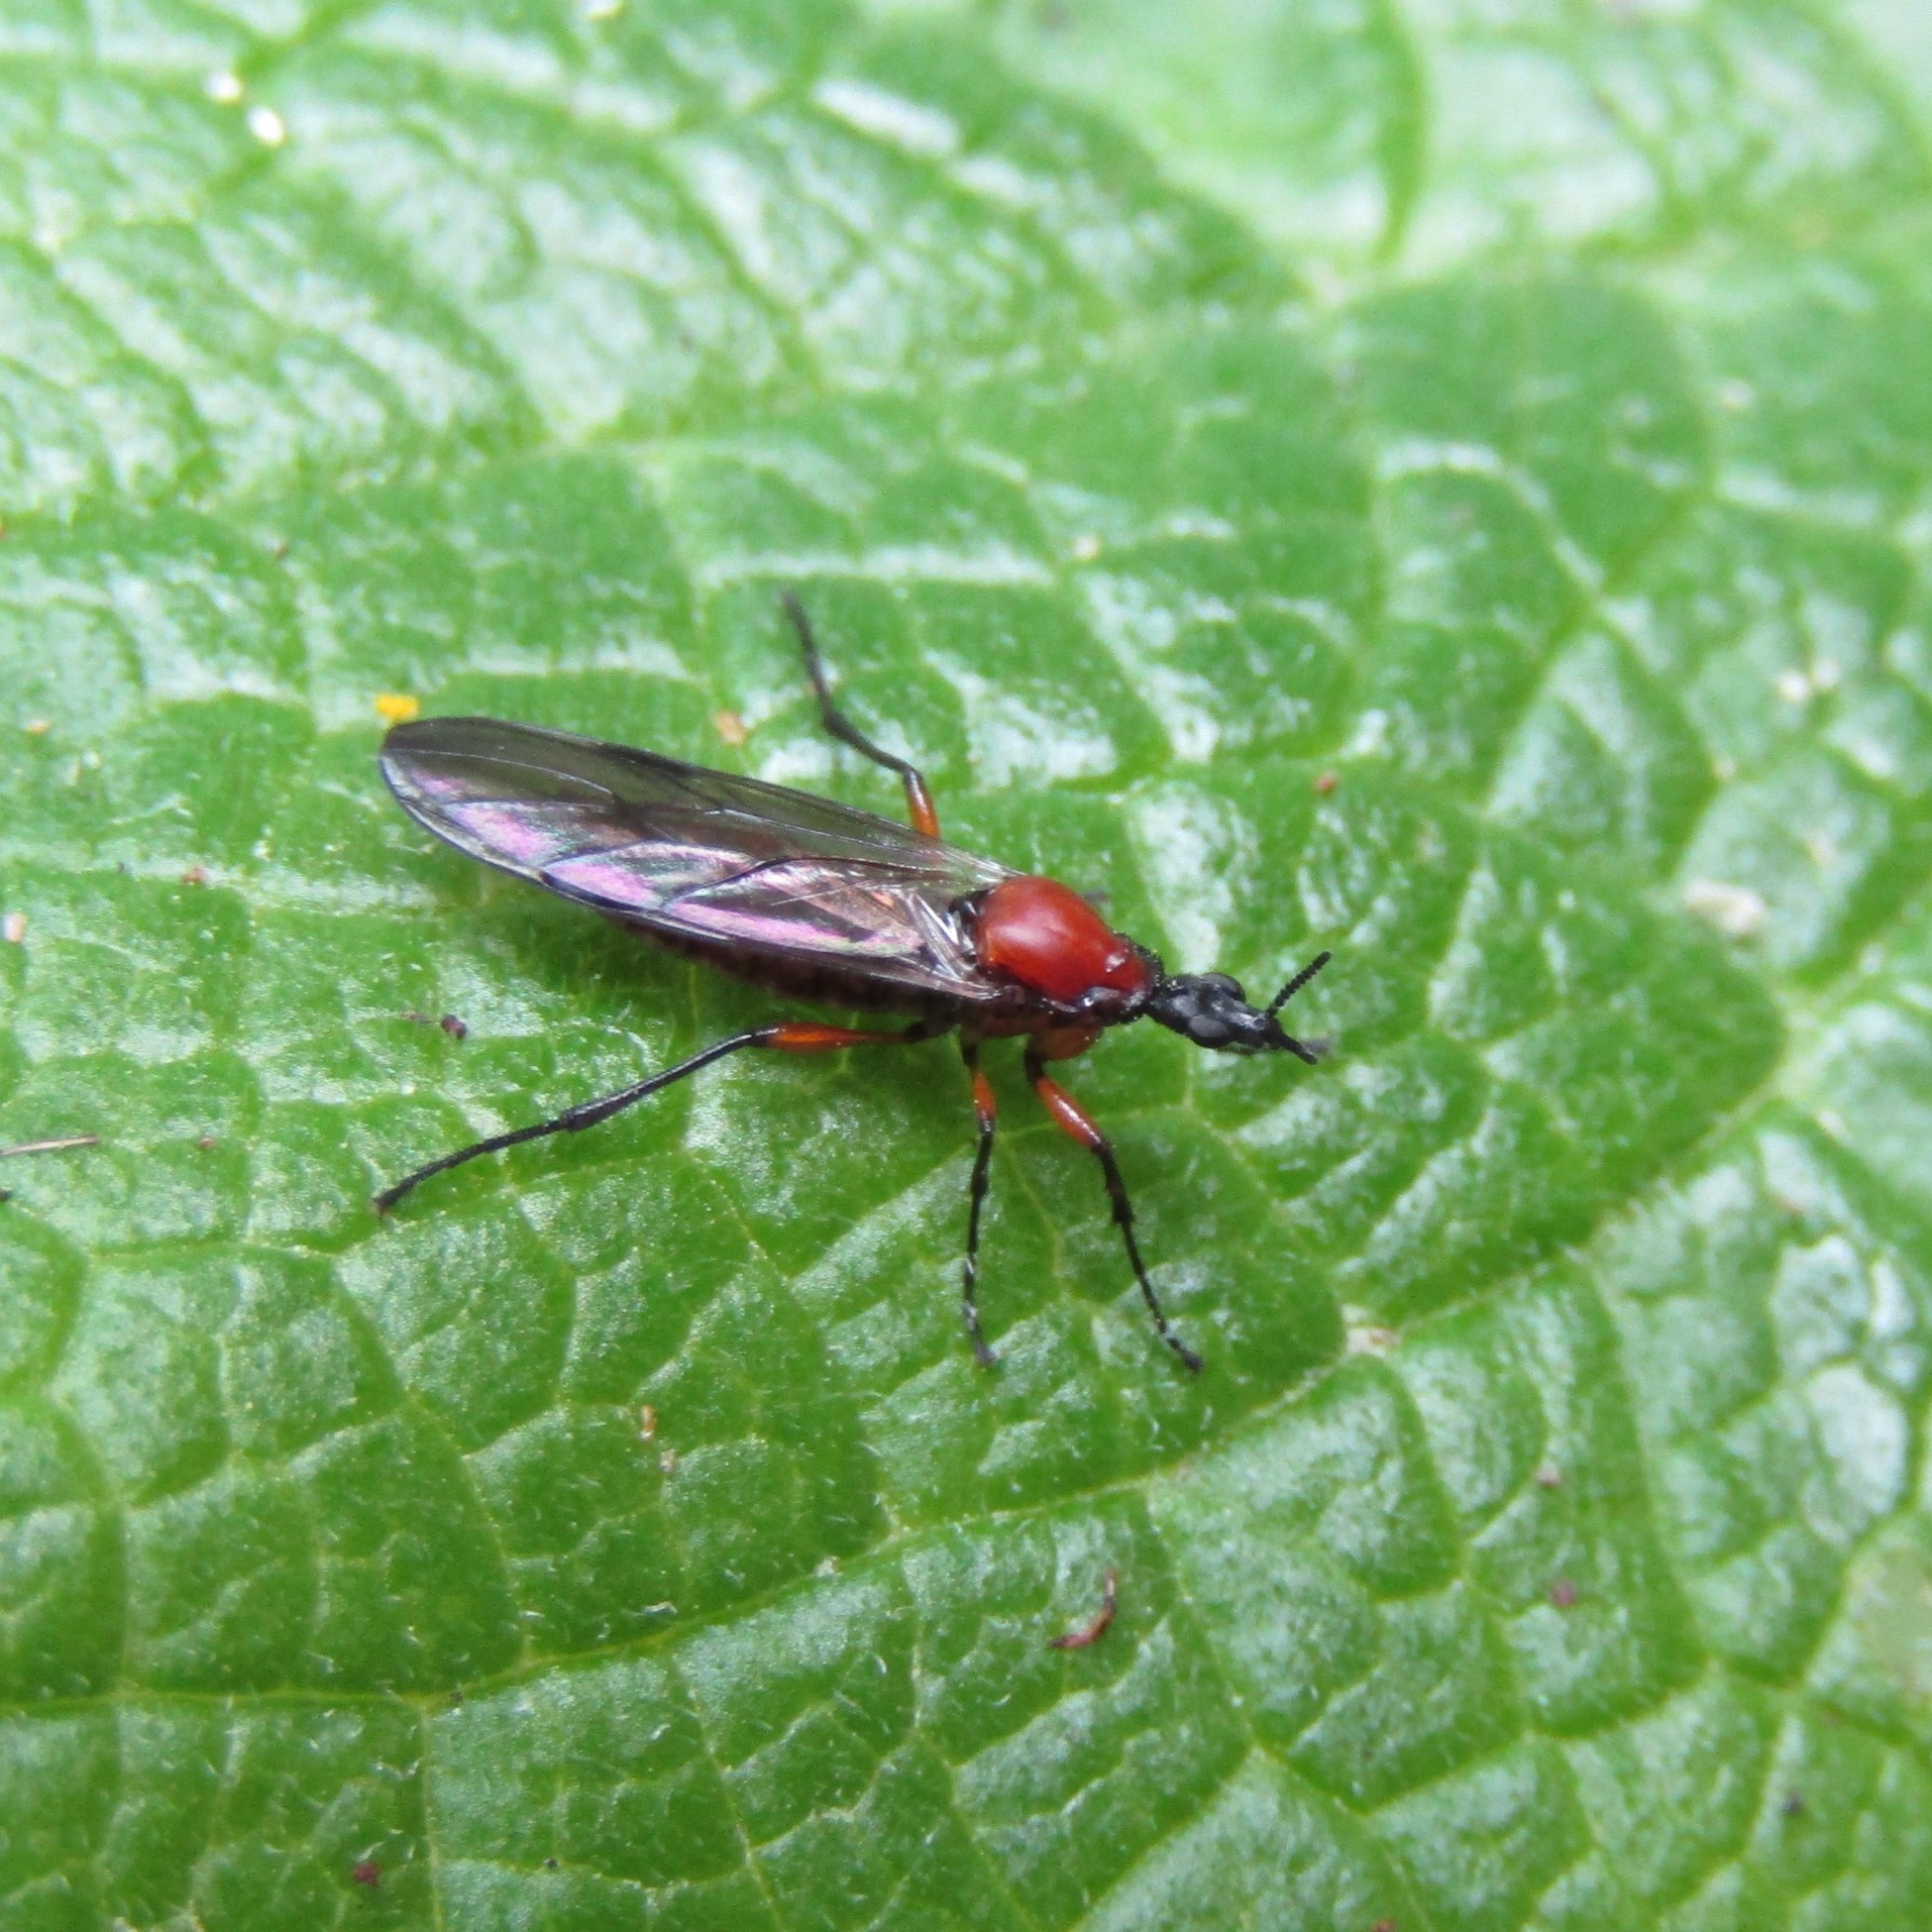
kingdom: Animalia
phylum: Arthropoda
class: Insecta
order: Diptera
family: Bibionidae
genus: Dilophus
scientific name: Dilophus nigrostigma
